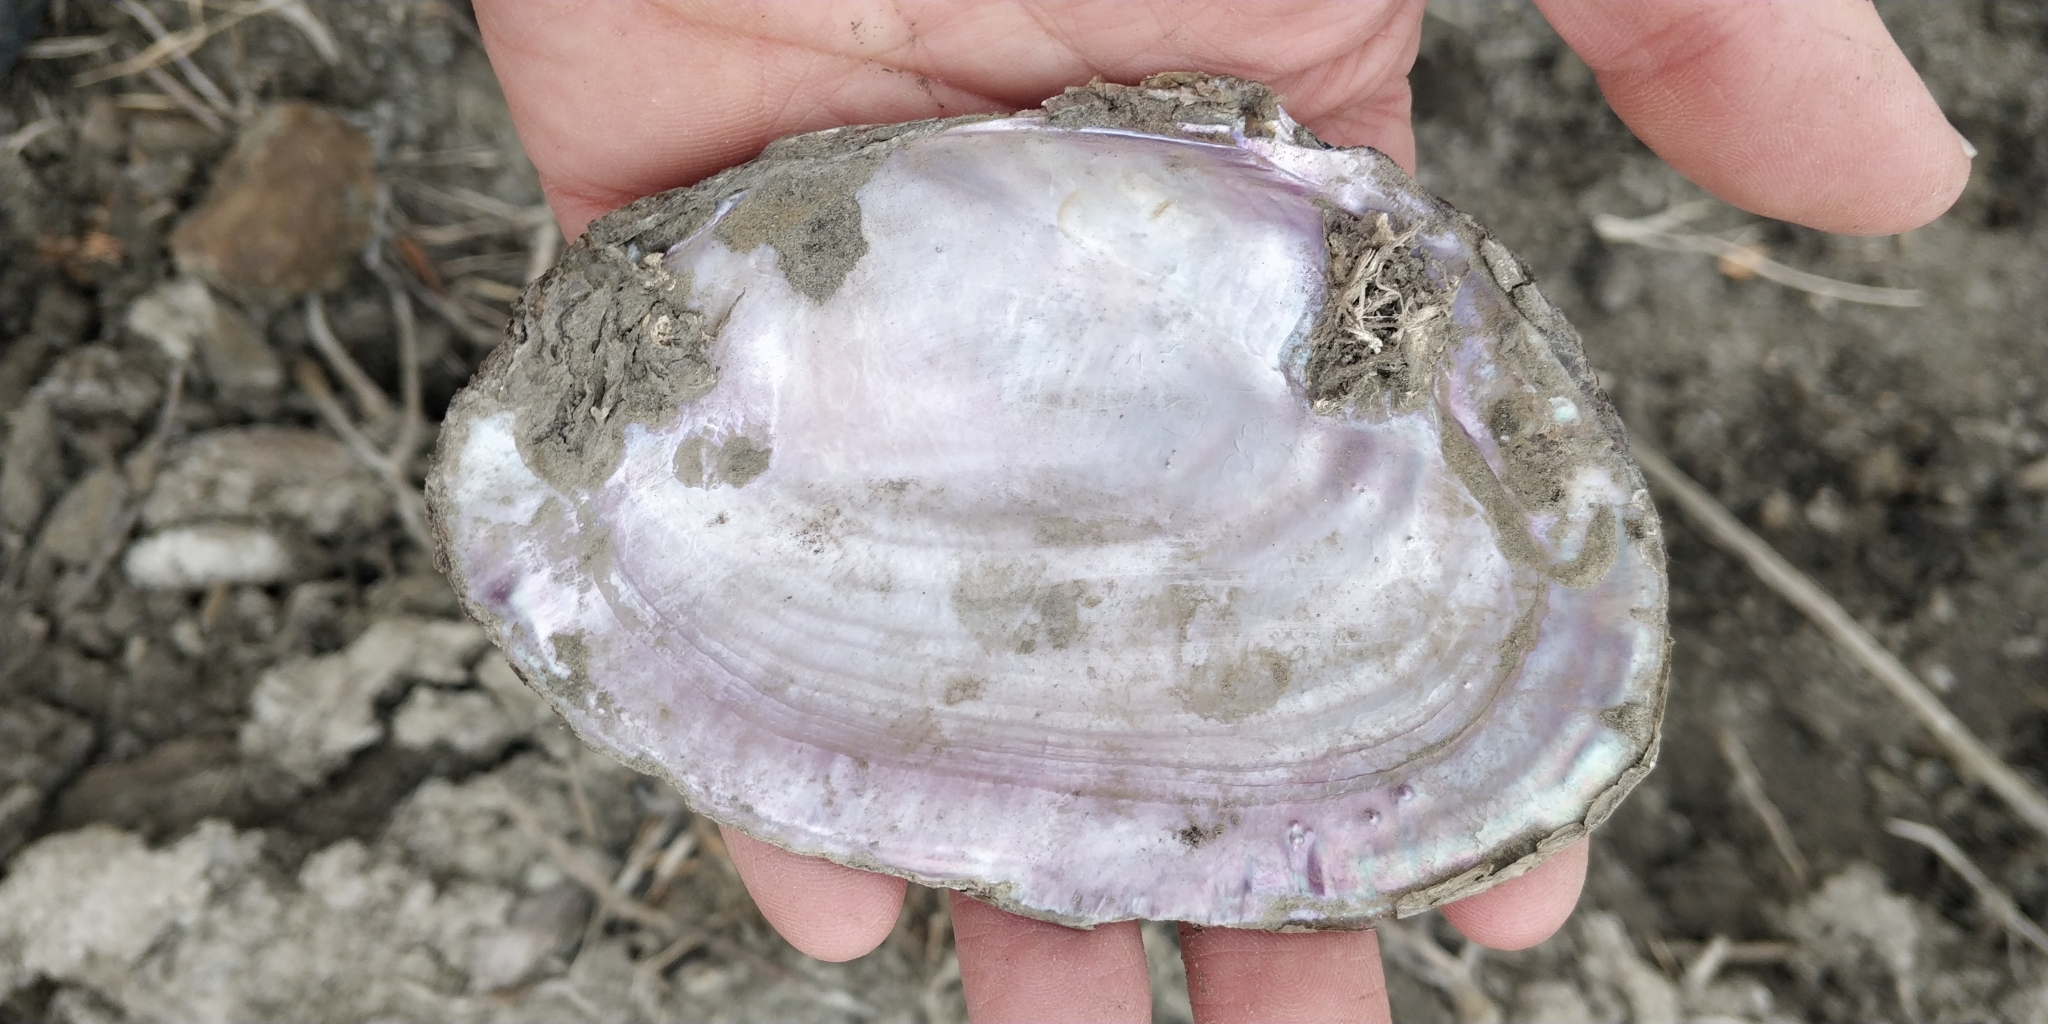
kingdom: Animalia
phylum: Mollusca
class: Bivalvia
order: Unionida
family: Unionidae
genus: Potamilus
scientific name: Potamilus ohiensis
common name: Pink papershell
